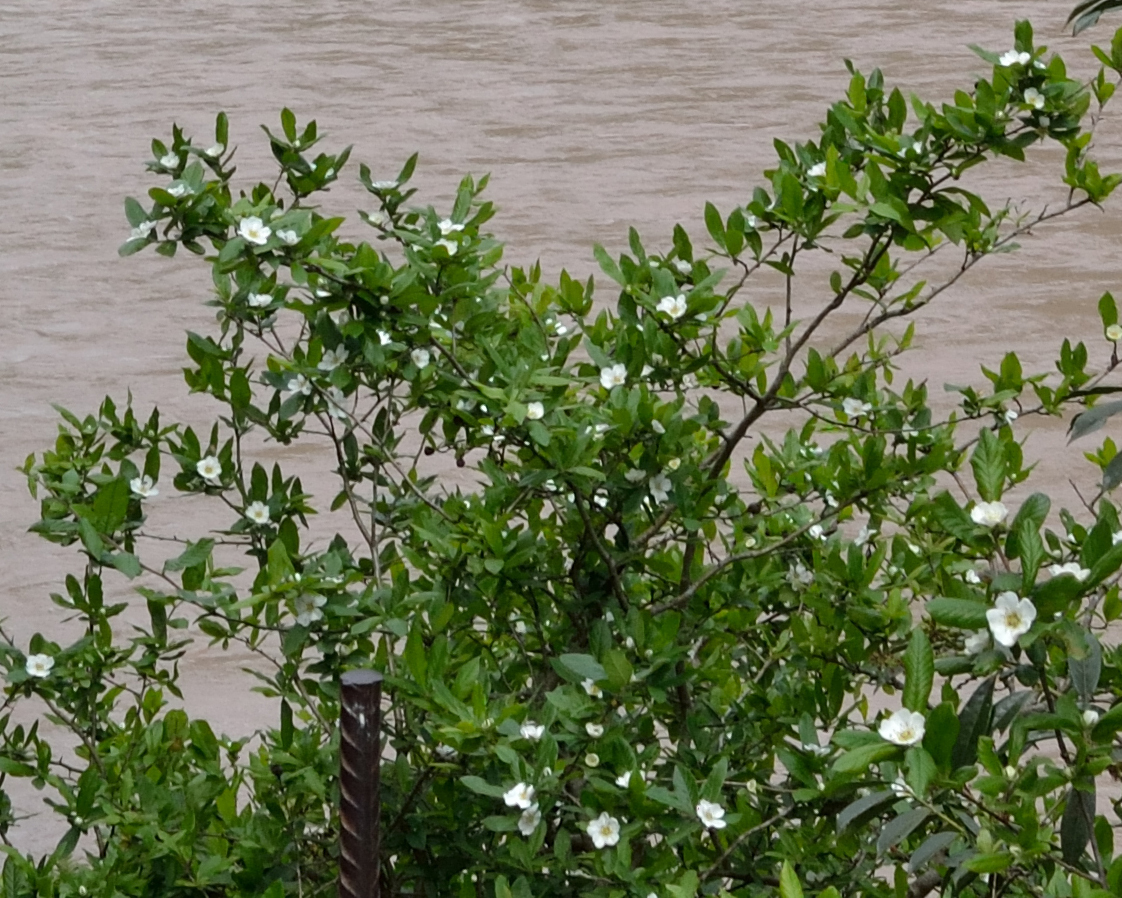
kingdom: Plantae
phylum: Tracheophyta
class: Magnoliopsida
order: Rosales
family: Rosaceae
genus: Mespilus
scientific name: Mespilus germanica
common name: Medlar
